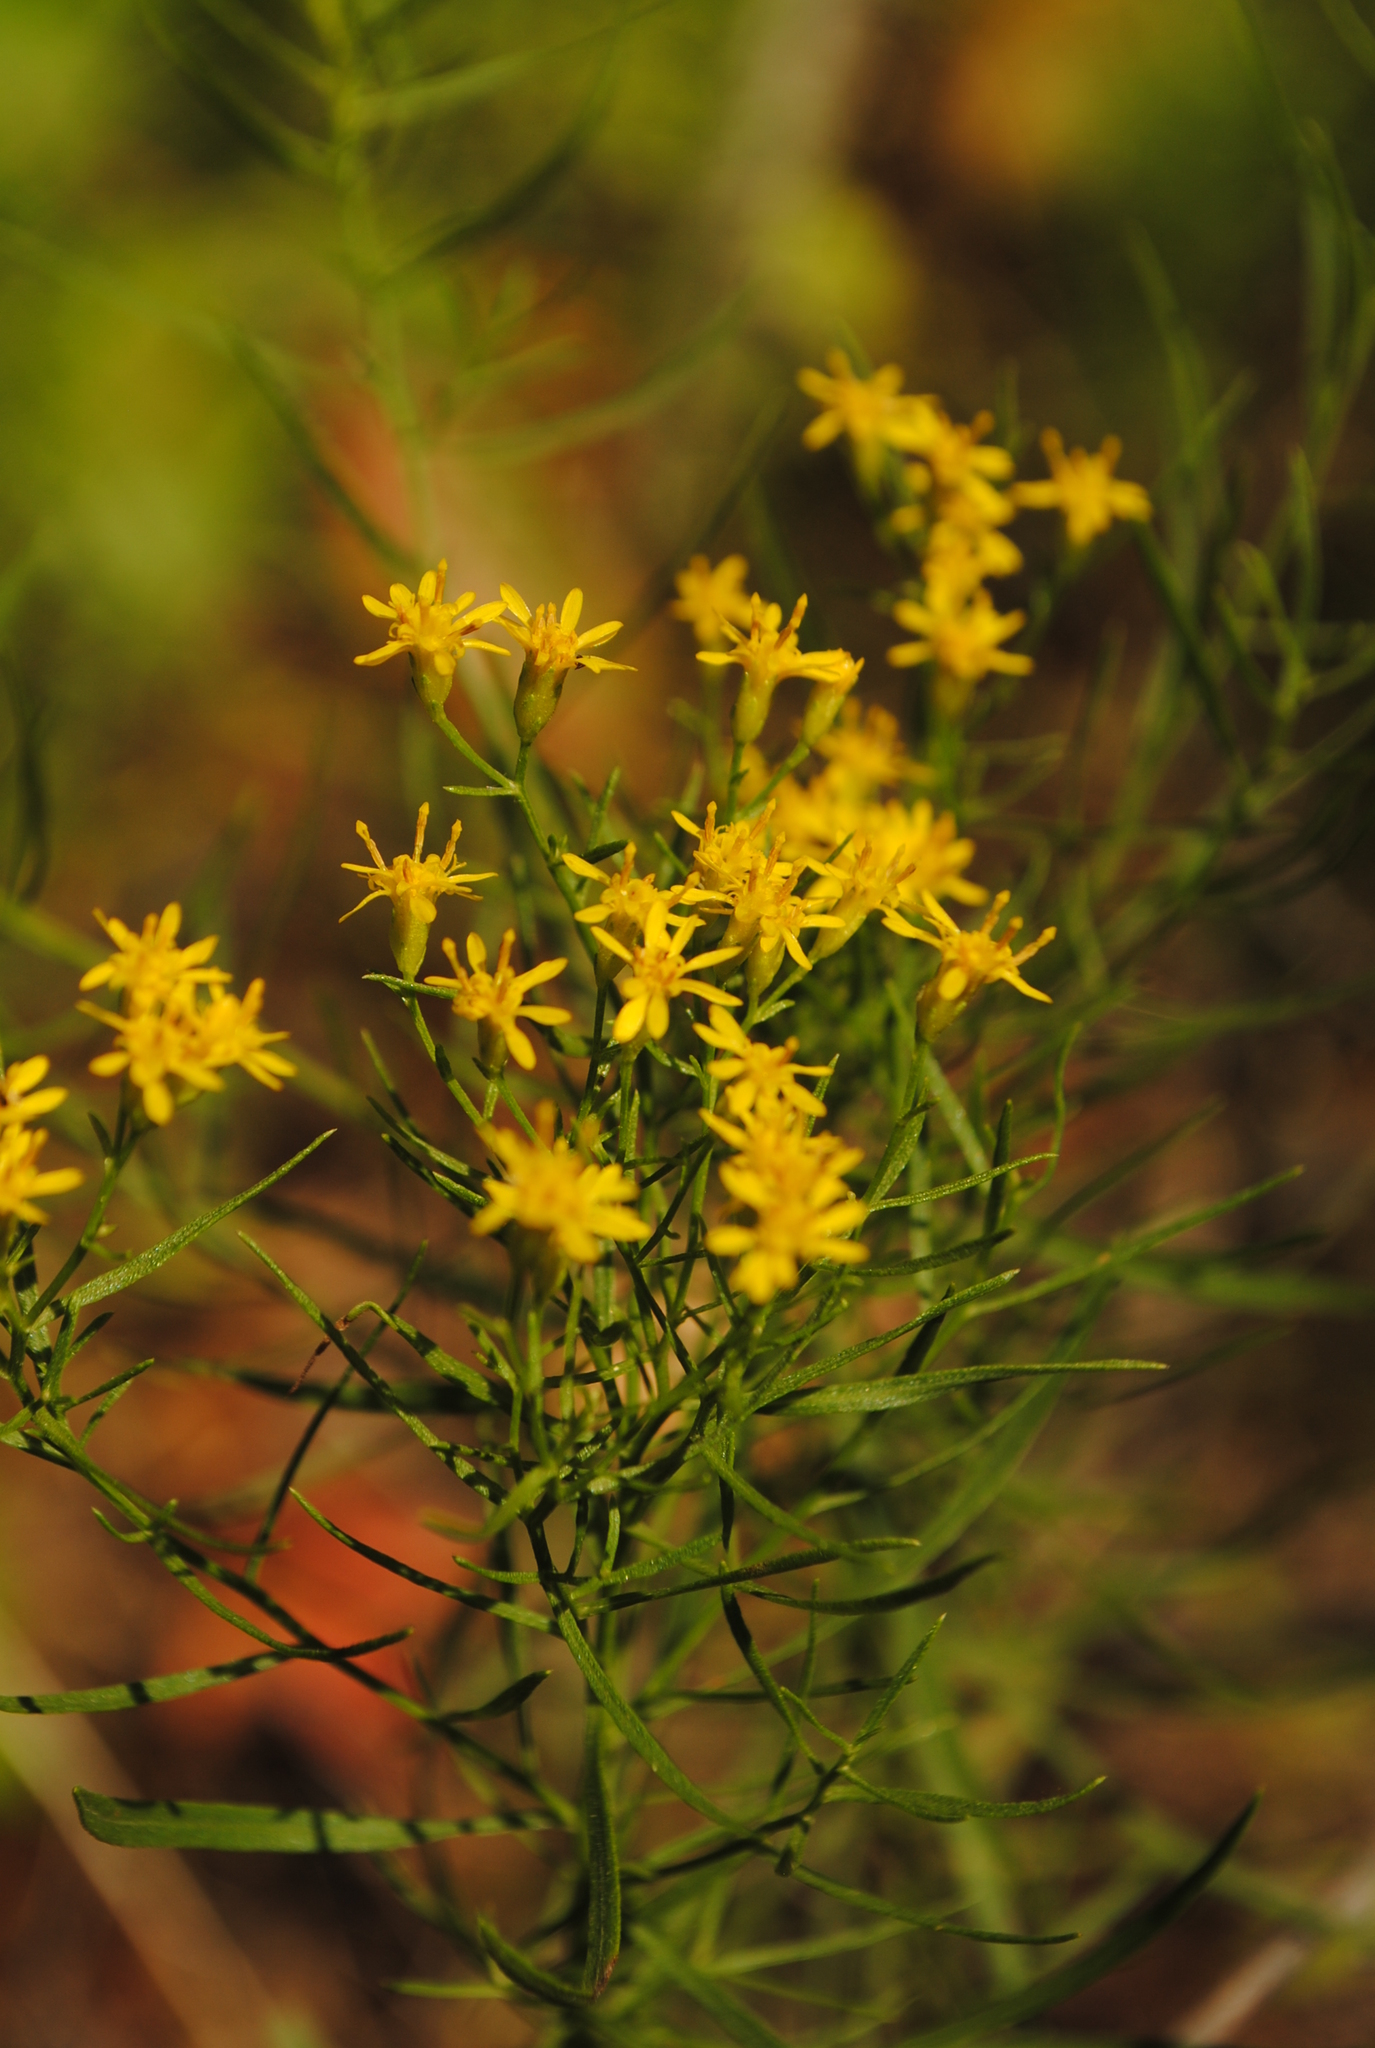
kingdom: Plantae
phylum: Tracheophyta
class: Magnoliopsida
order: Asterales
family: Asteraceae
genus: Euthamia
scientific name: Euthamia caroliniana
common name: Coastal plain goldentop
